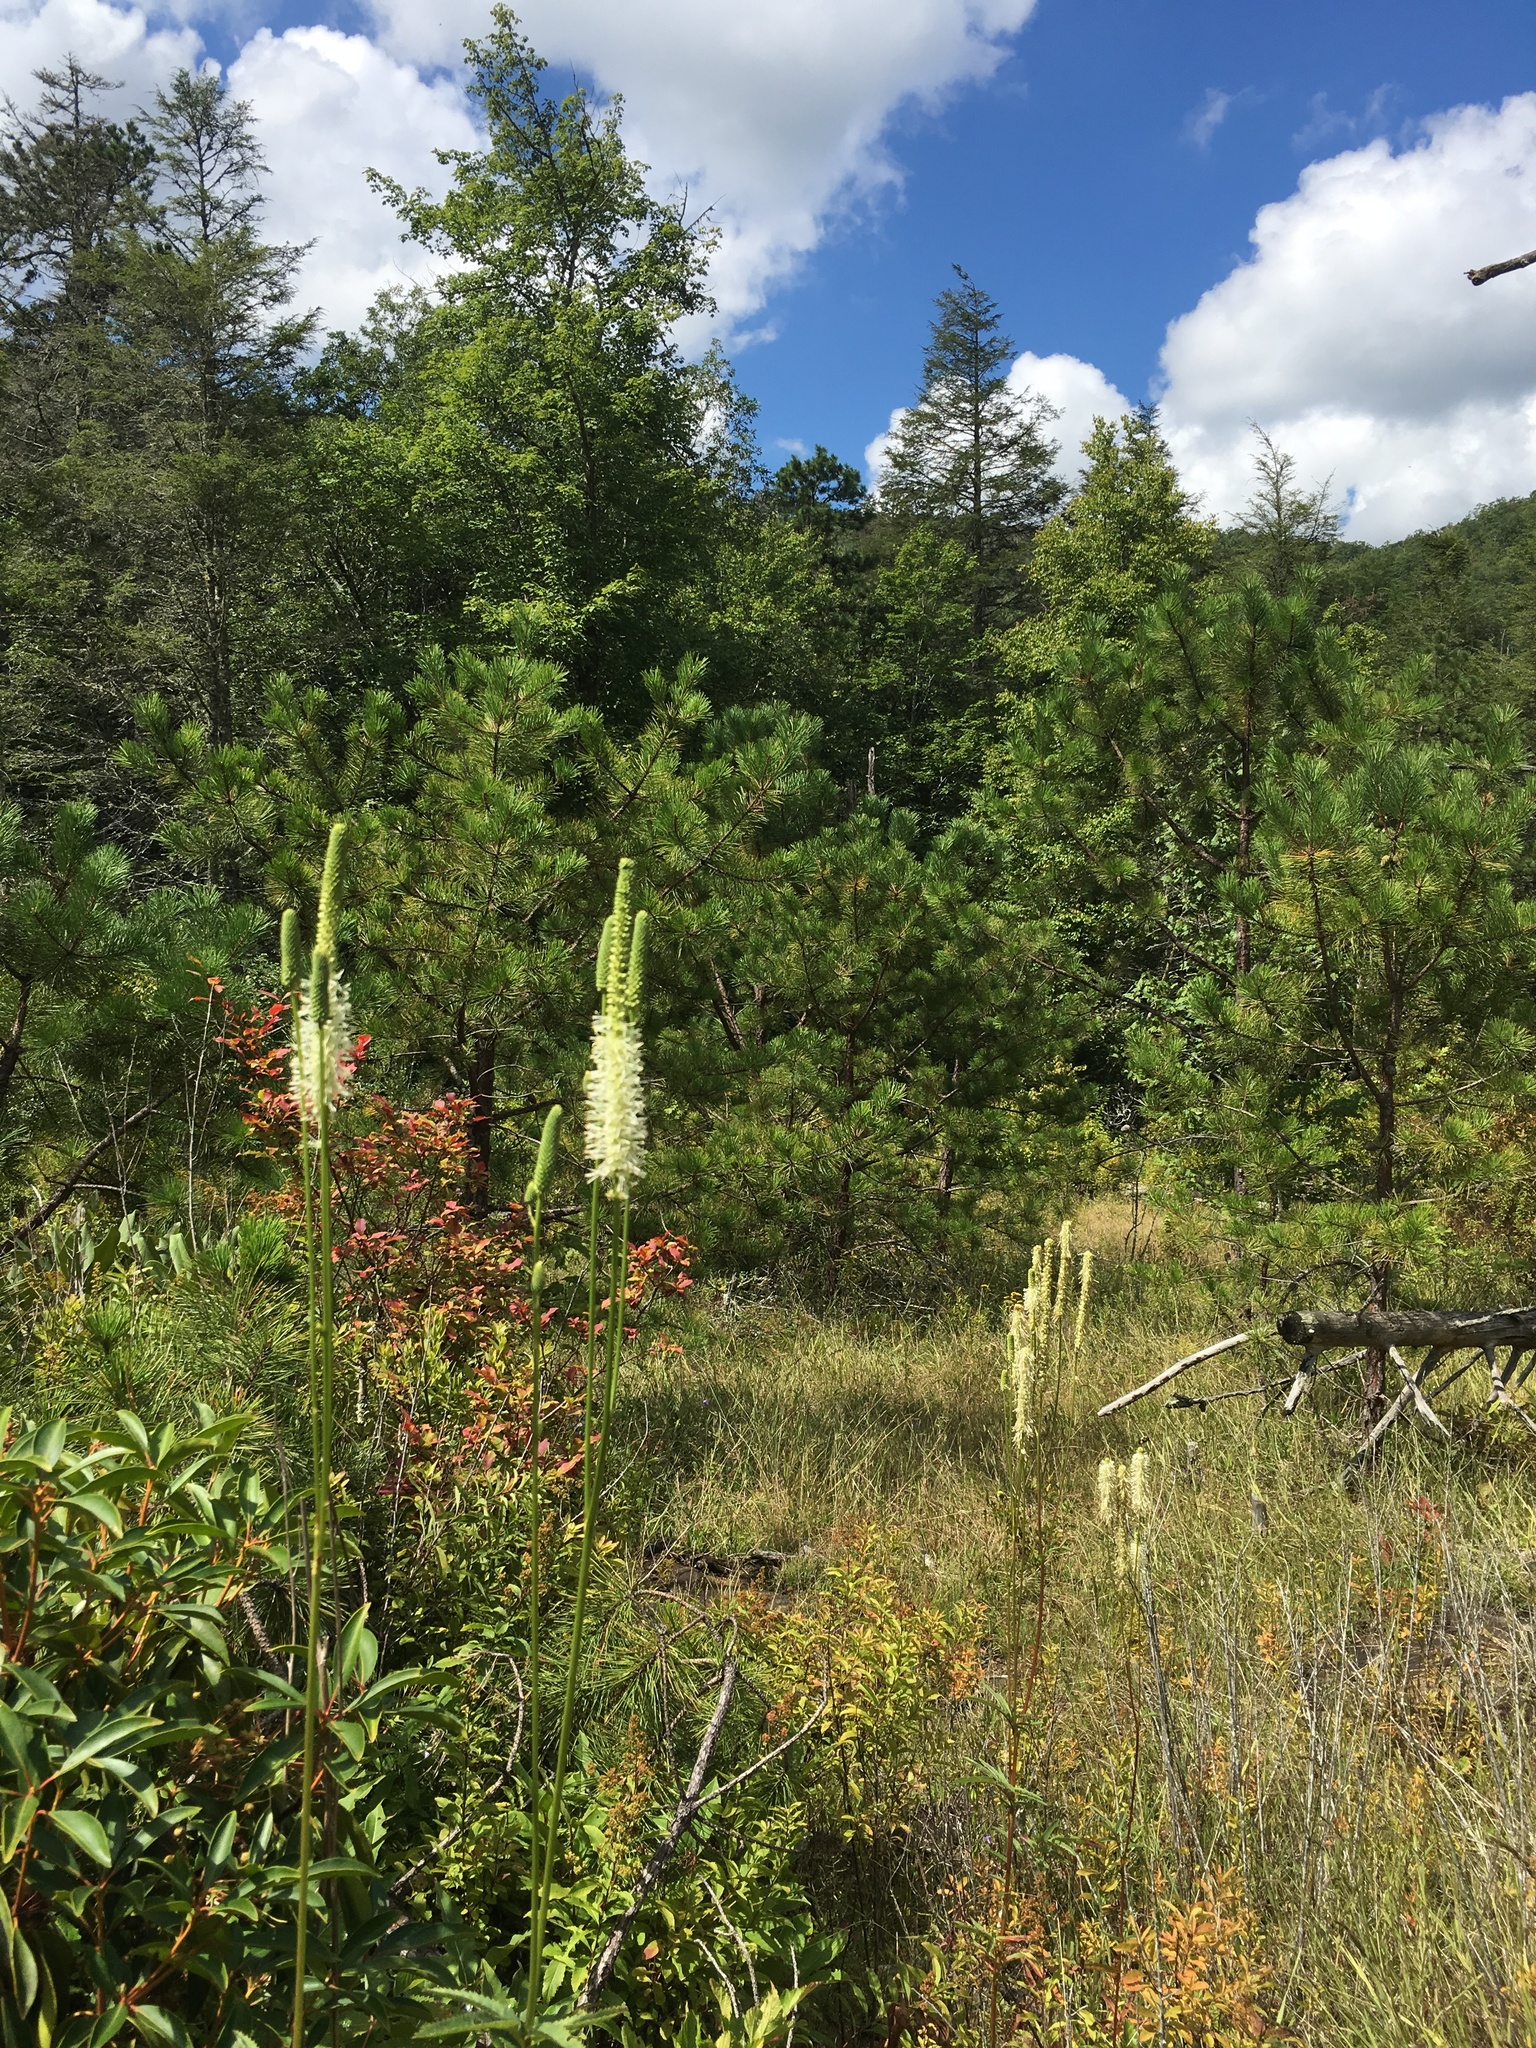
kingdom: Plantae
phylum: Tracheophyta
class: Magnoliopsida
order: Rosales
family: Rosaceae
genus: Sanguisorba
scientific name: Sanguisorba canadensis
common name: White burnet
